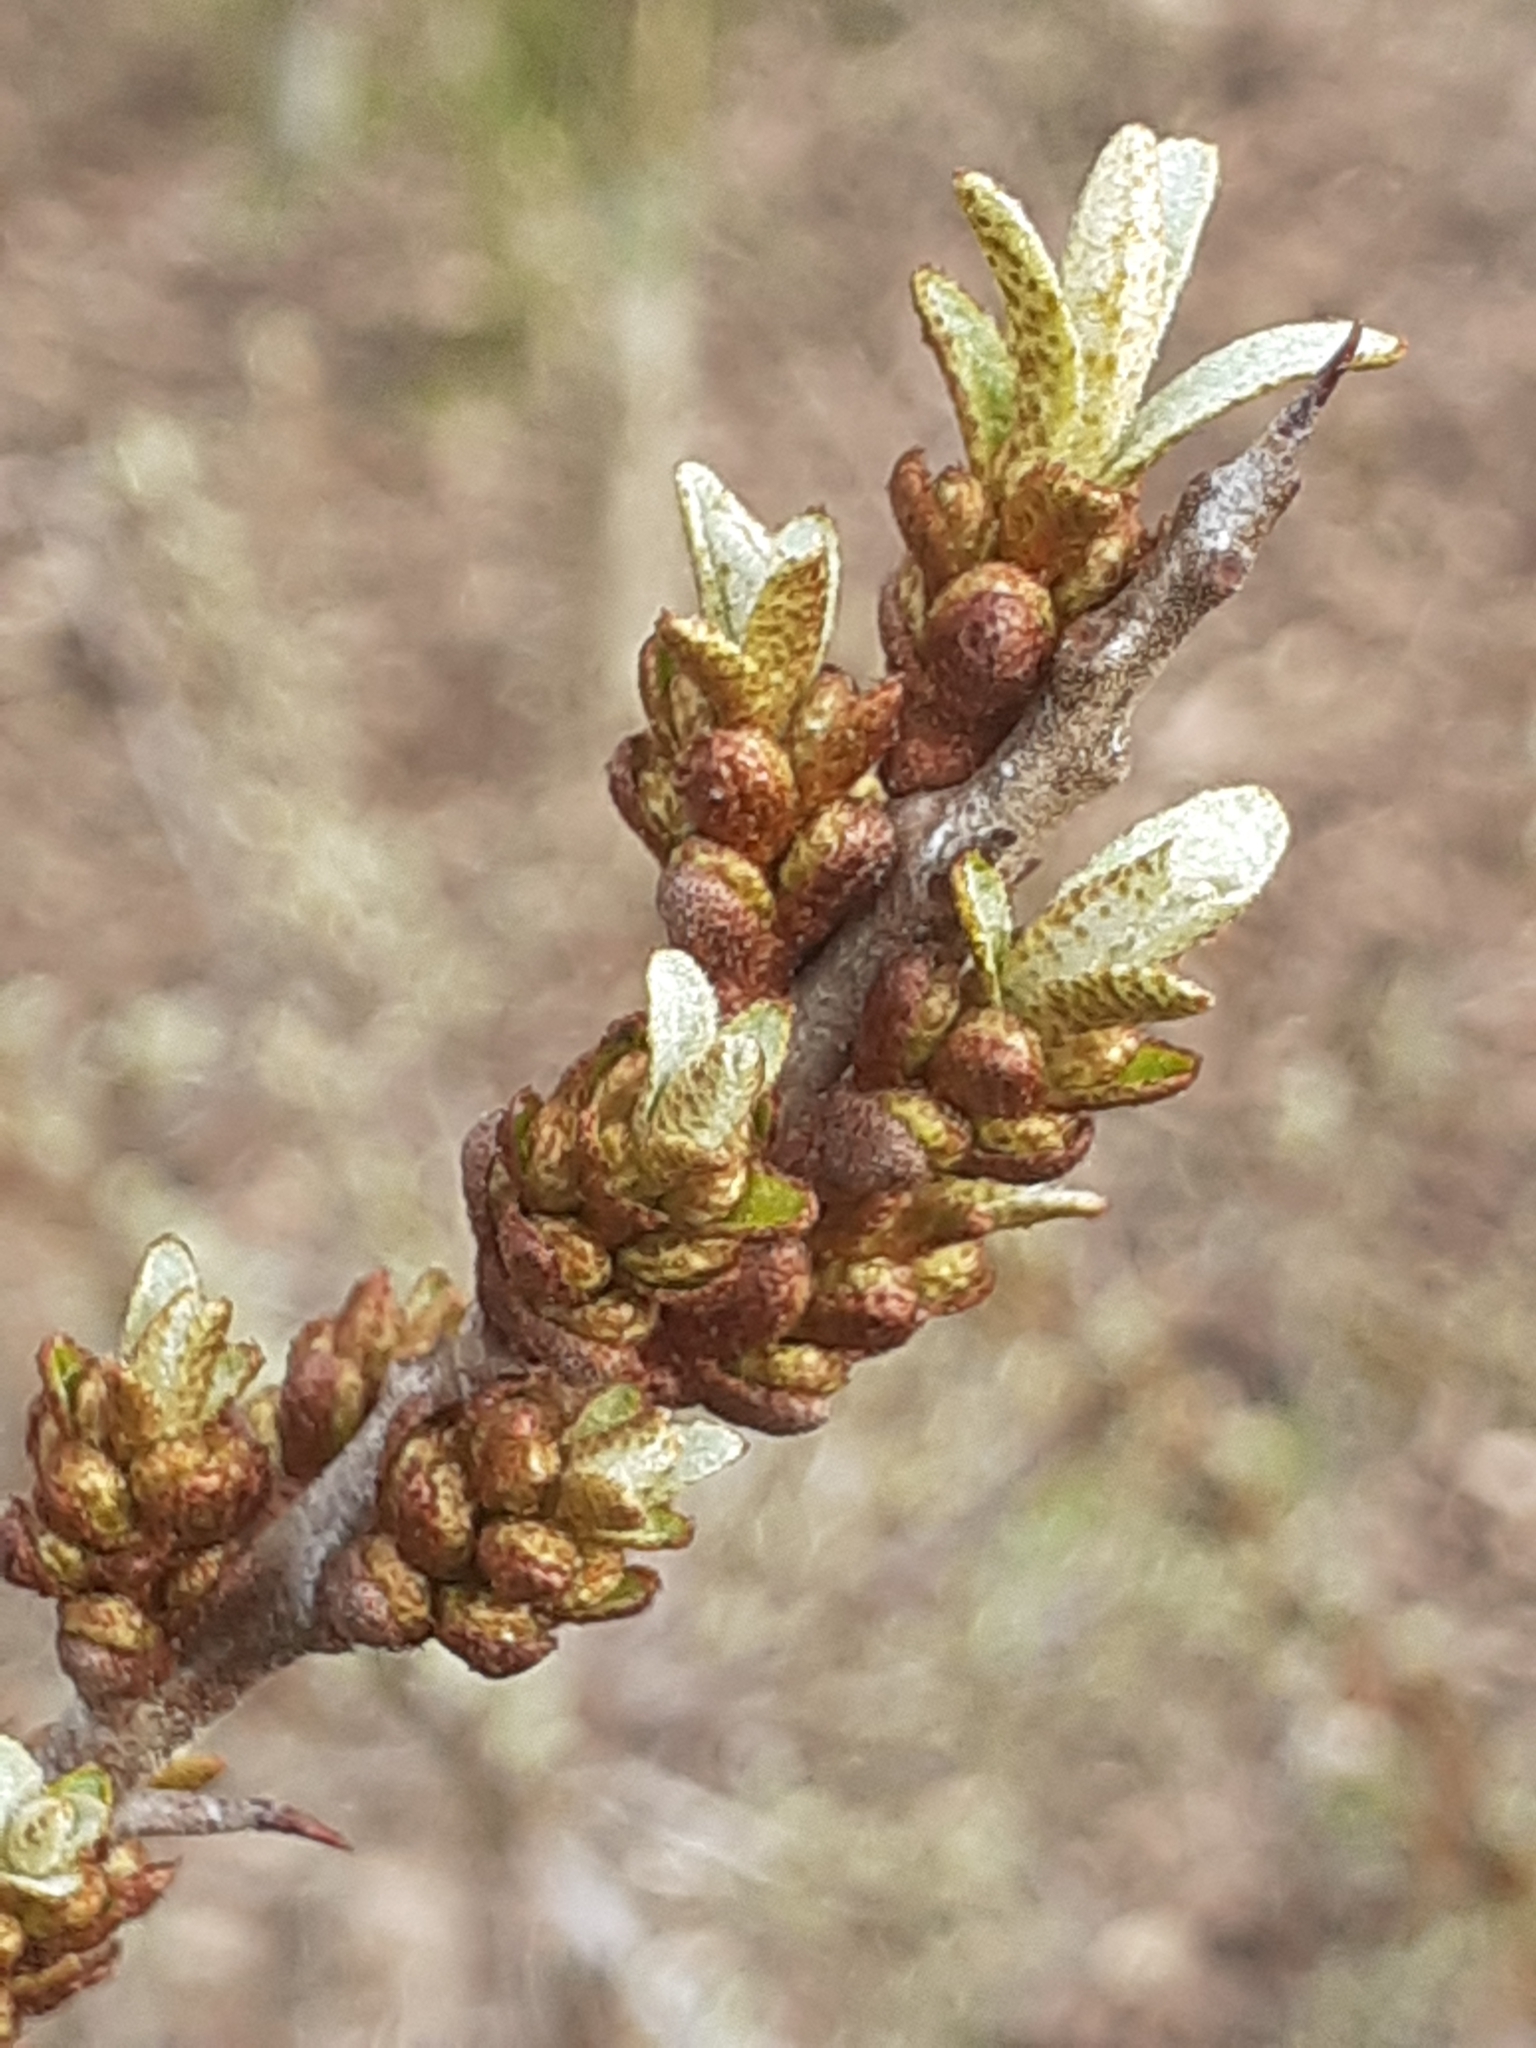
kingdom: Plantae
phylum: Tracheophyta
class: Magnoliopsida
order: Rosales
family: Elaeagnaceae
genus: Hippophae
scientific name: Hippophae rhamnoides
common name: Sea-buckthorn
